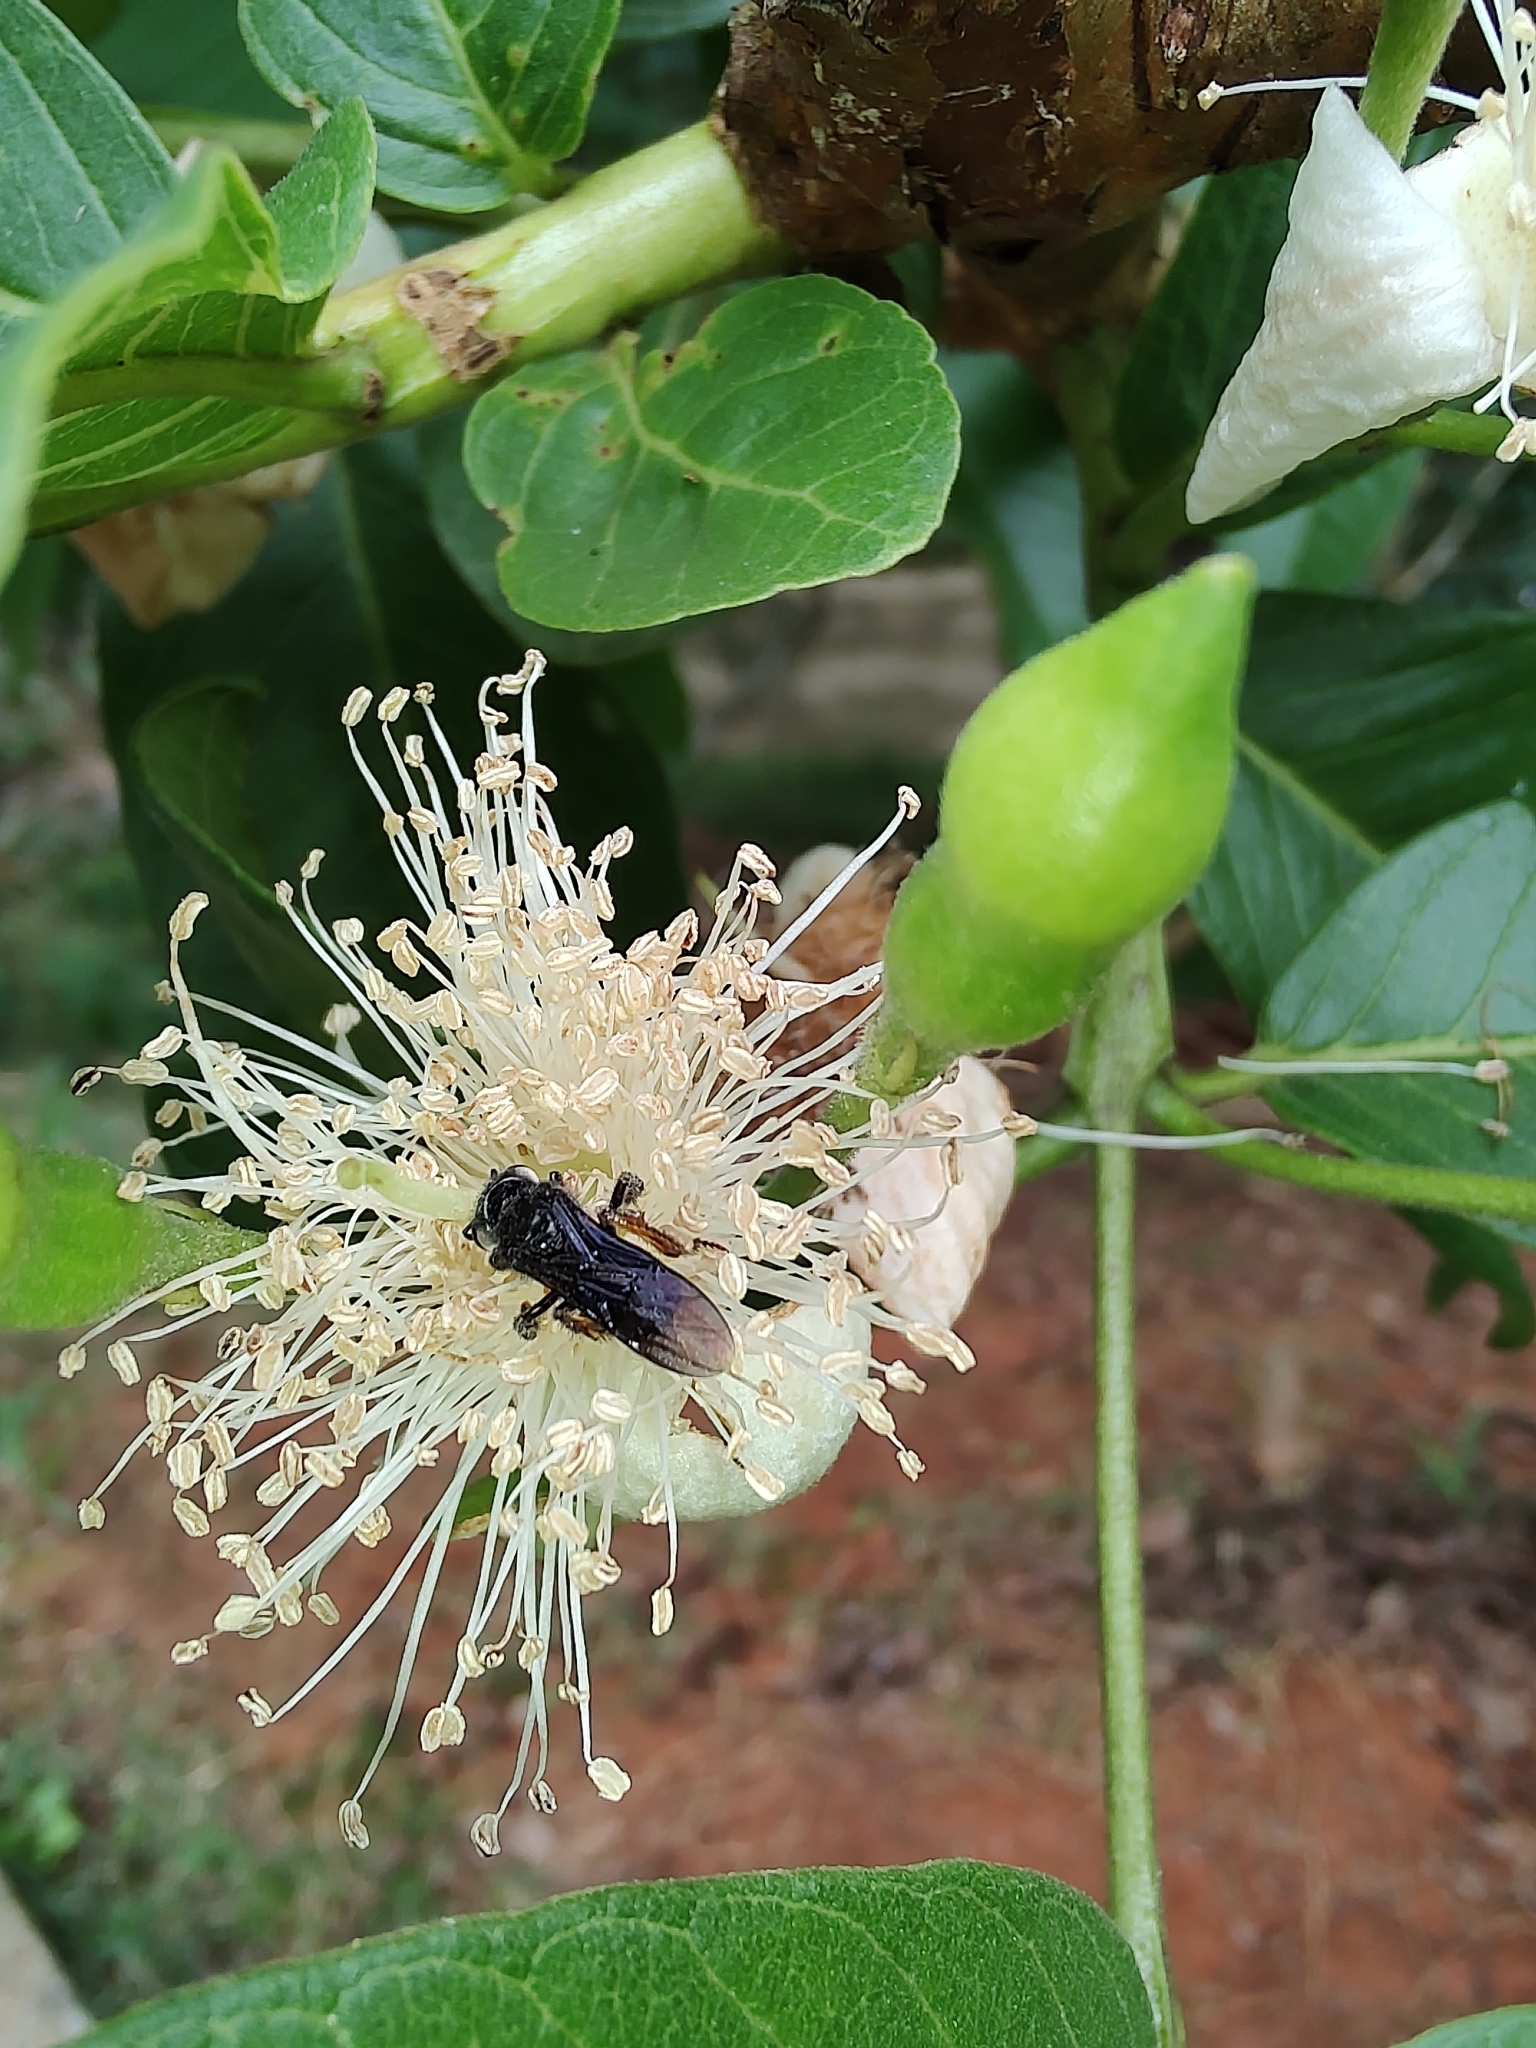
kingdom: Animalia
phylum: Arthropoda
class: Insecta
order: Hymenoptera
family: Apidae
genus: Trigona
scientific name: Trigona spinipes
